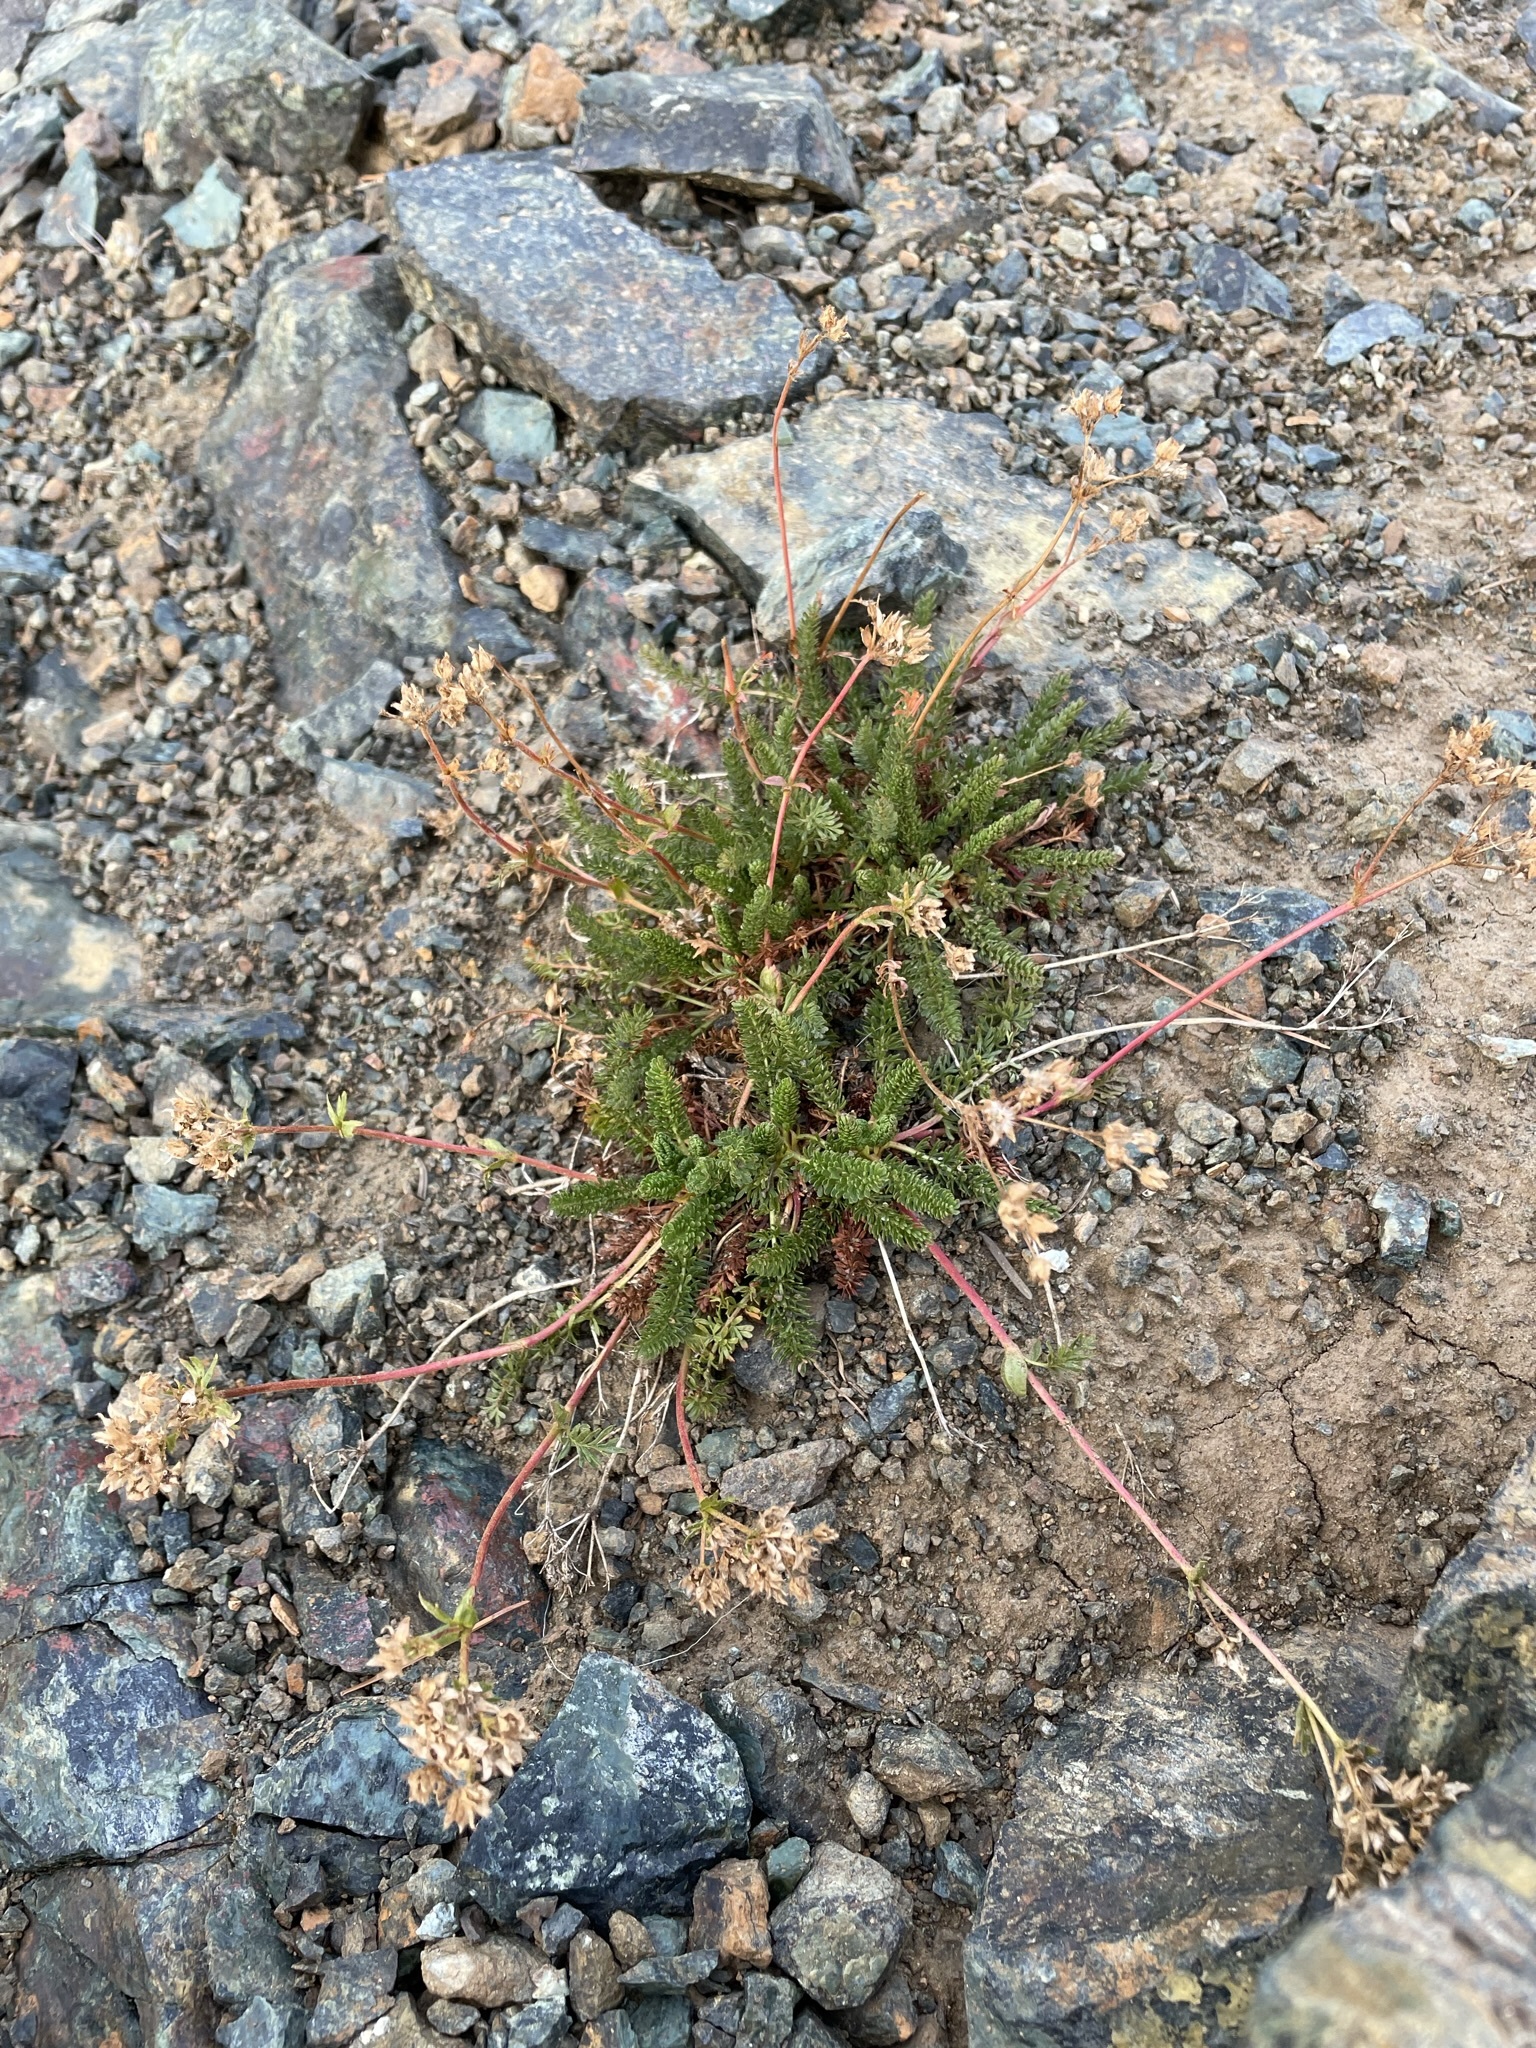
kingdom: Plantae
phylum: Tracheophyta
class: Magnoliopsida
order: Rosales
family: Rosaceae
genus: Potentilla
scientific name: Potentilla tweedyi
